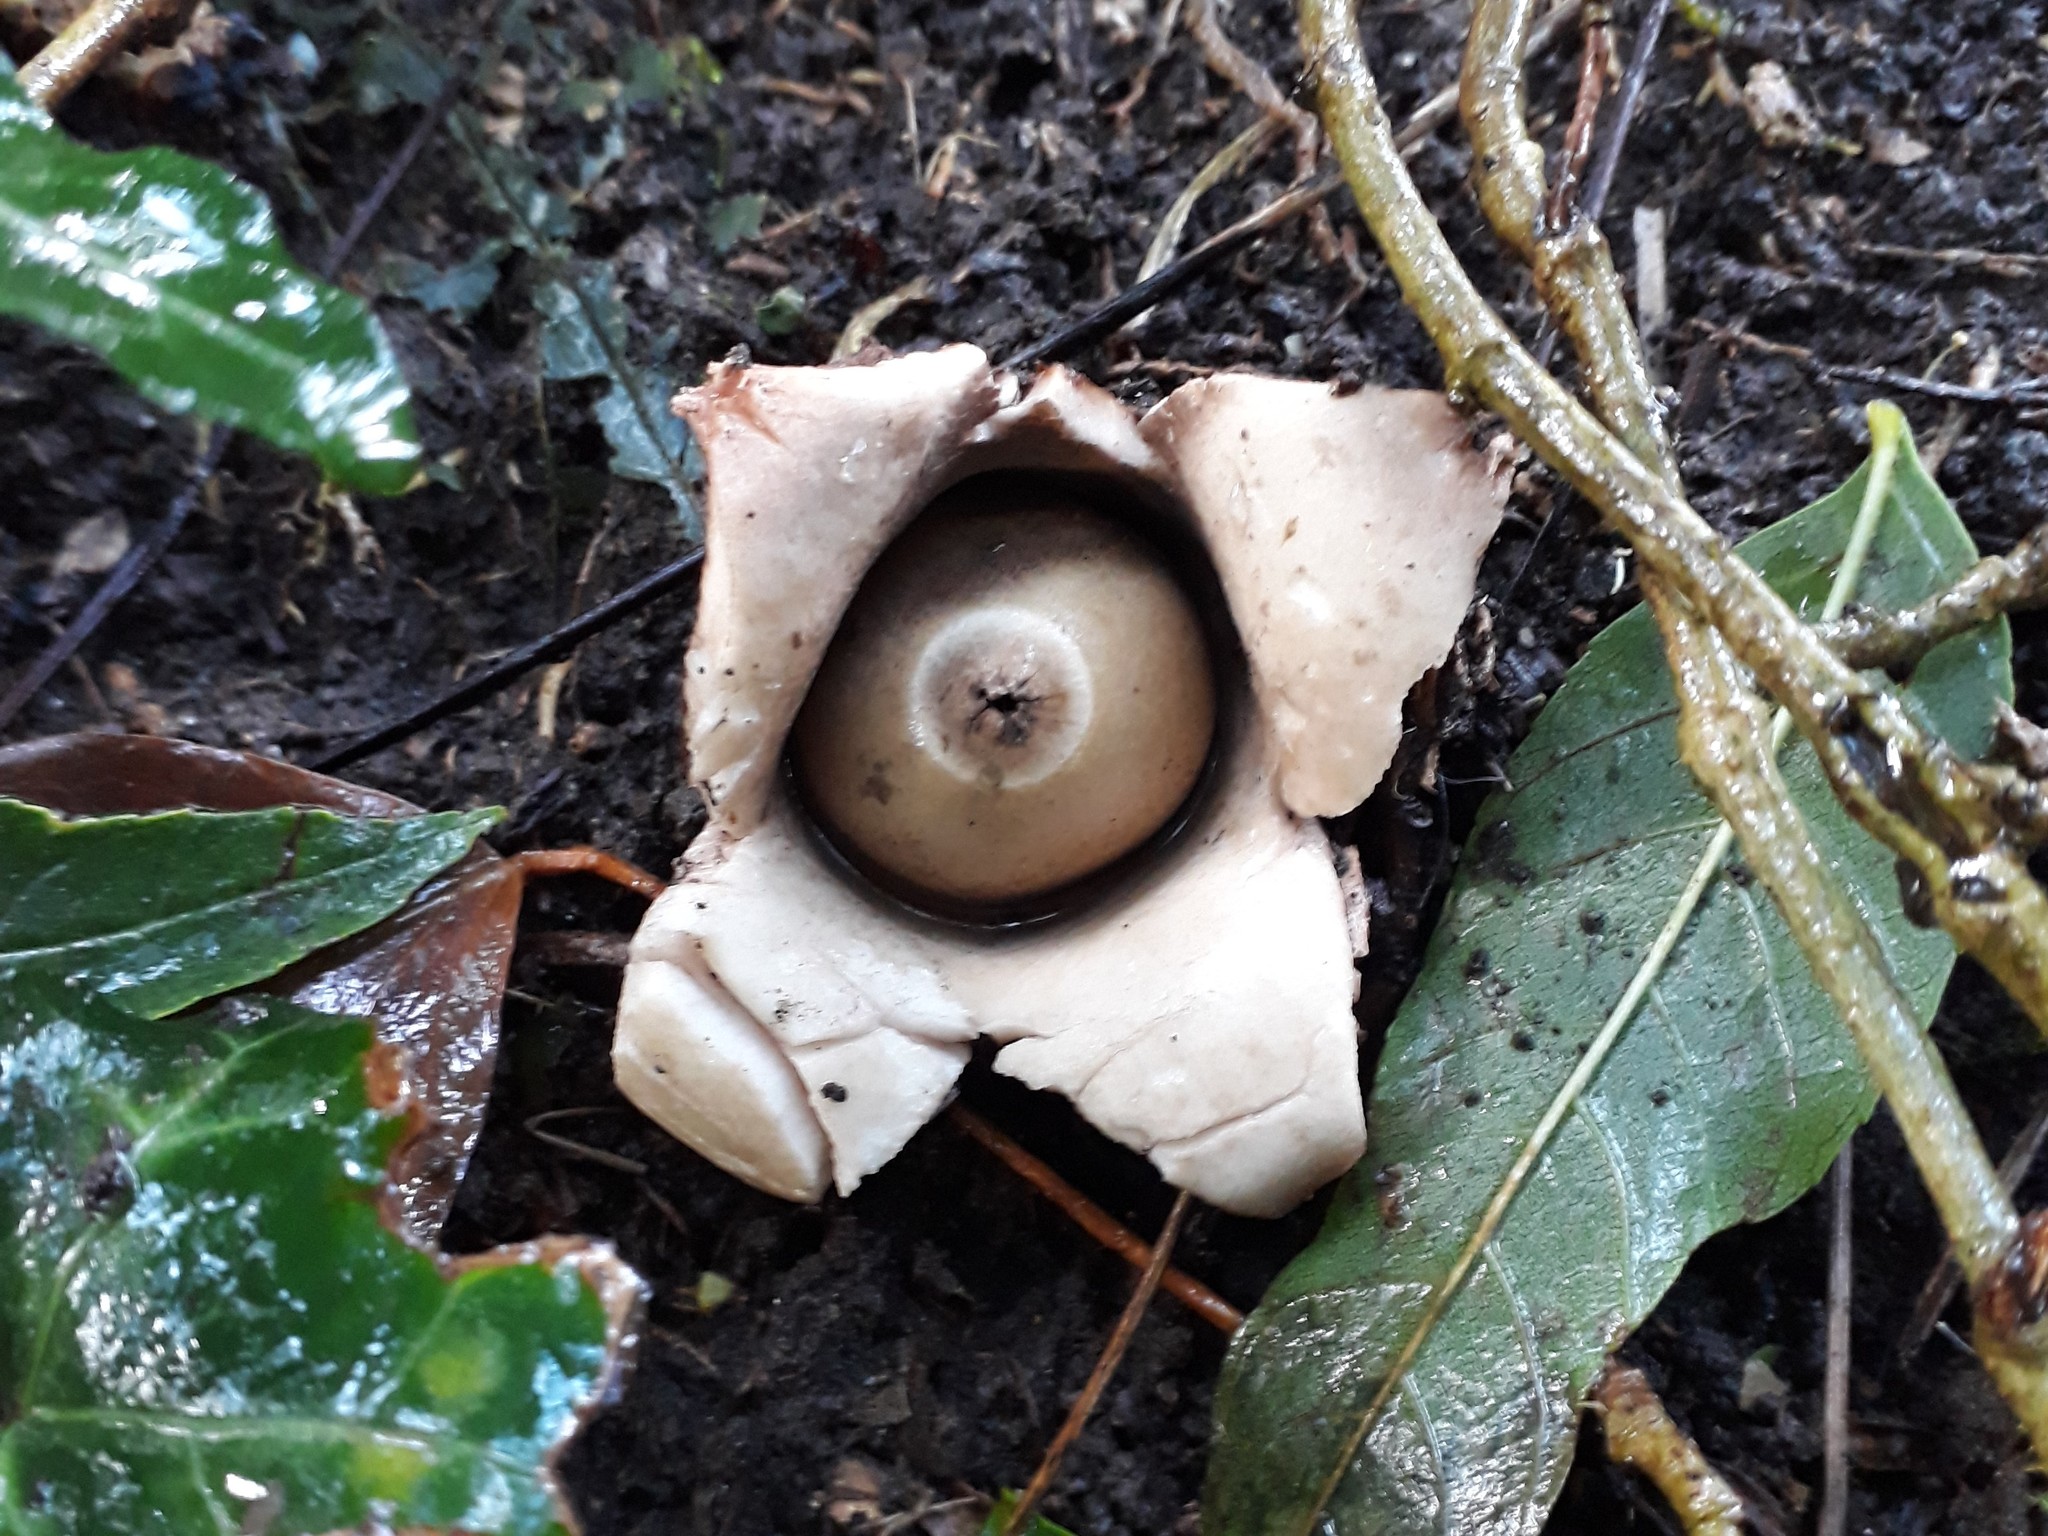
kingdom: Fungi
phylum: Basidiomycota
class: Agaricomycetes
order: Geastrales
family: Geastraceae
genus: Geastrum
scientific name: Geastrum triplex
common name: Collared earthstar
